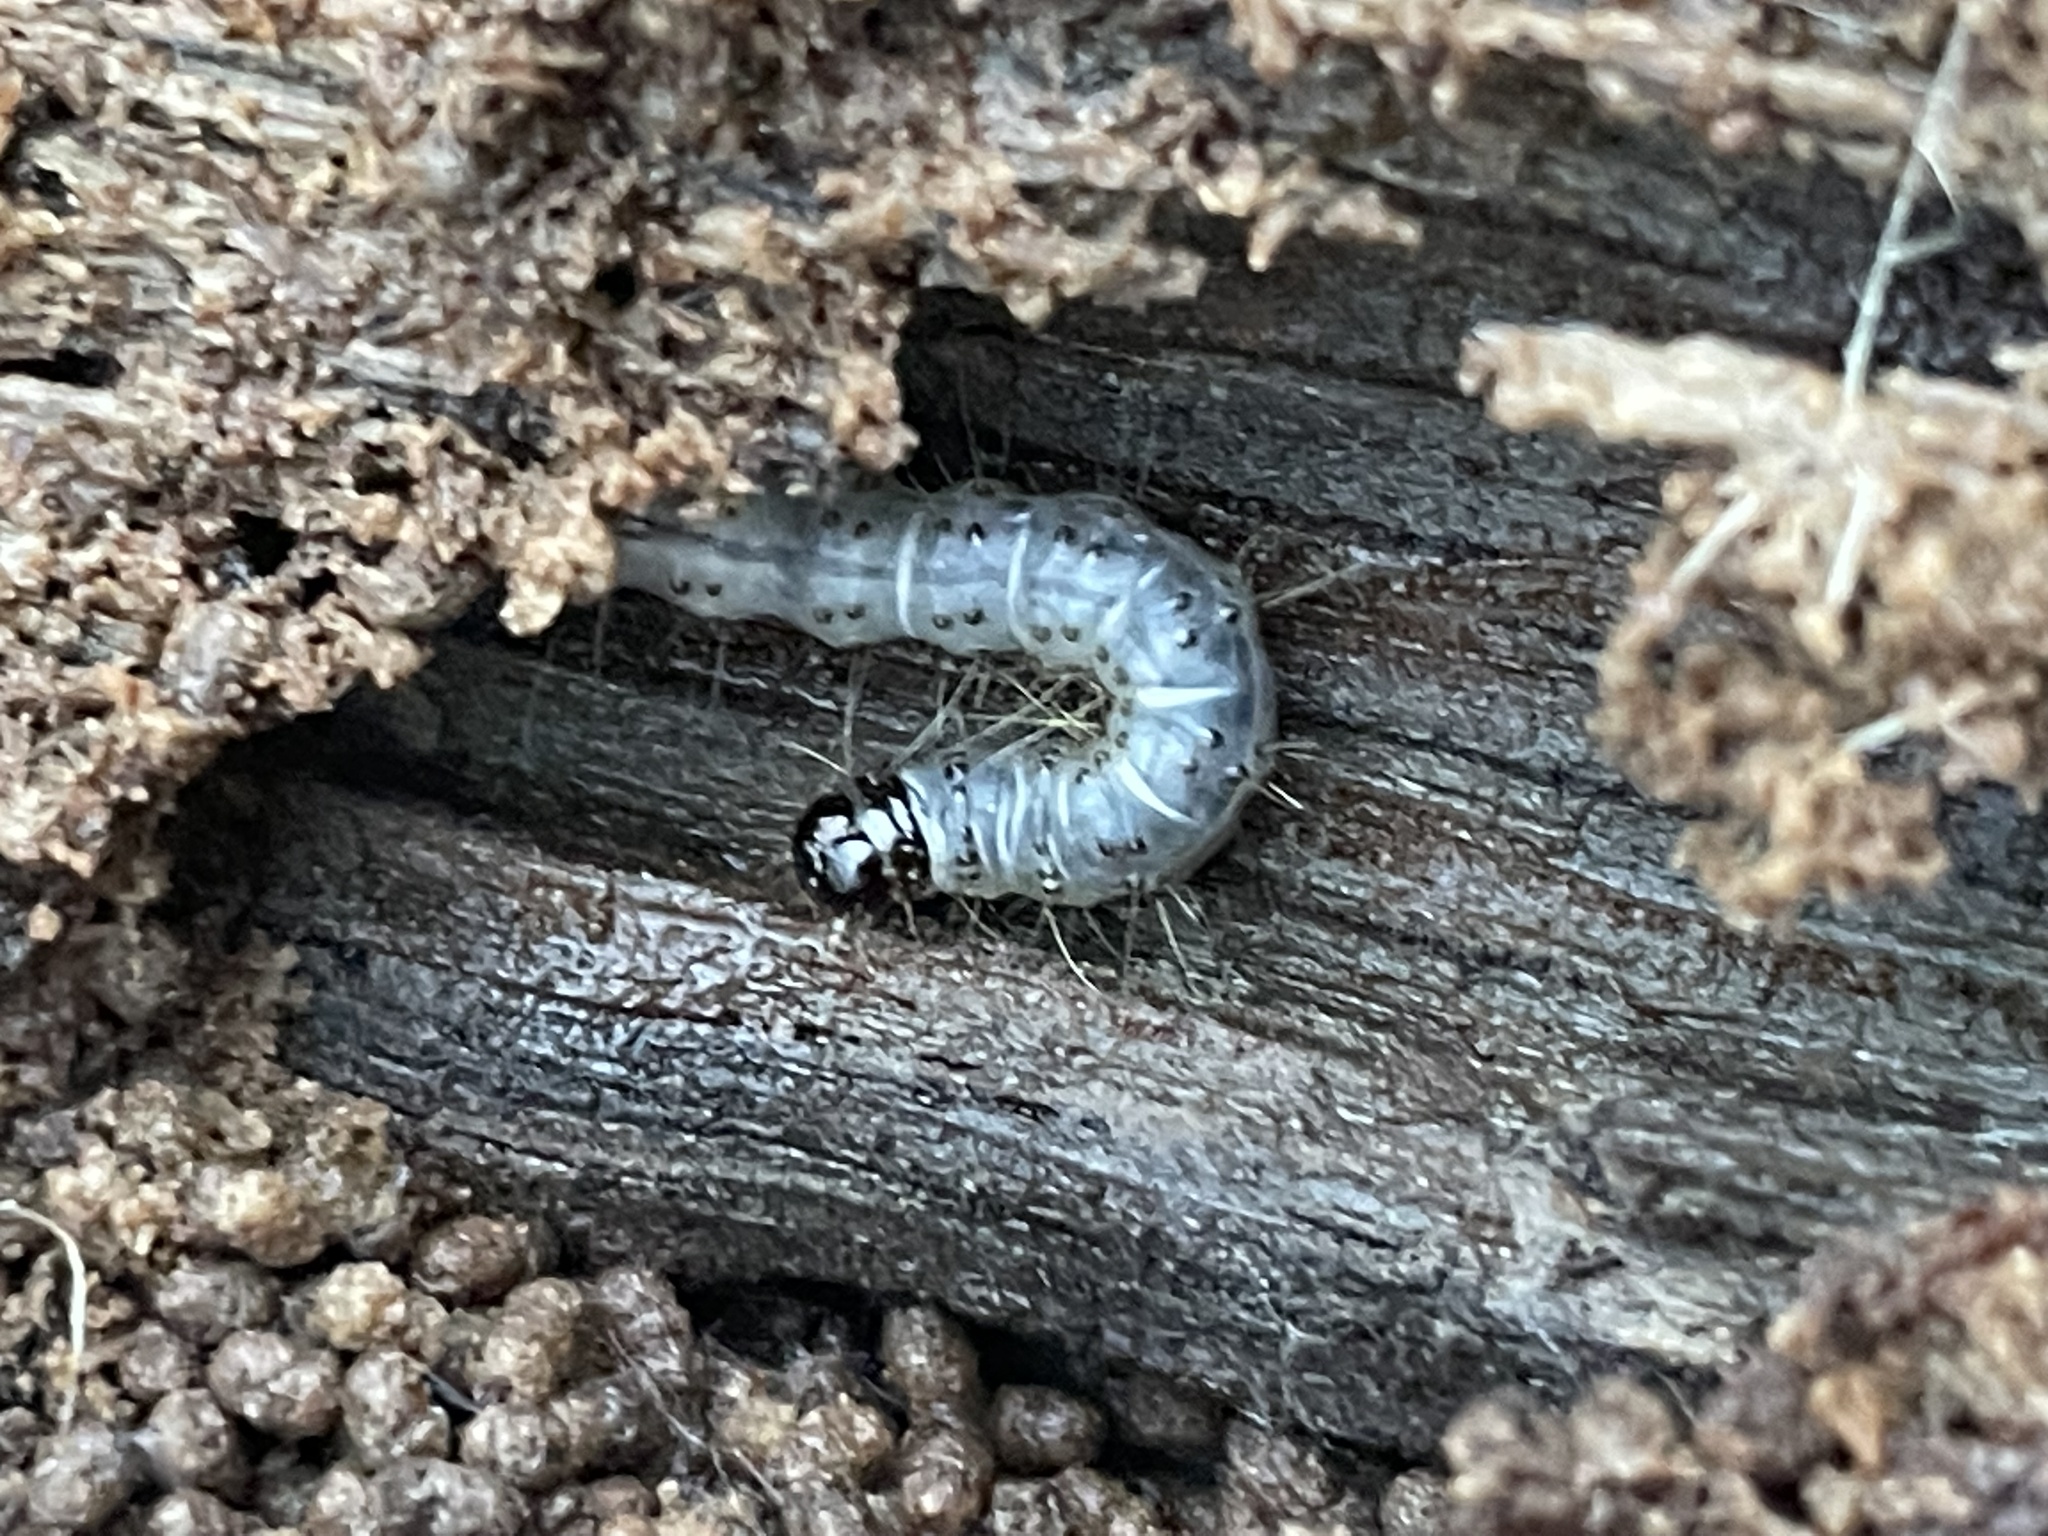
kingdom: Animalia
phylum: Arthropoda
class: Insecta
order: Lepidoptera
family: Erebidae
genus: Scolecocampa
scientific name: Scolecocampa liburna
